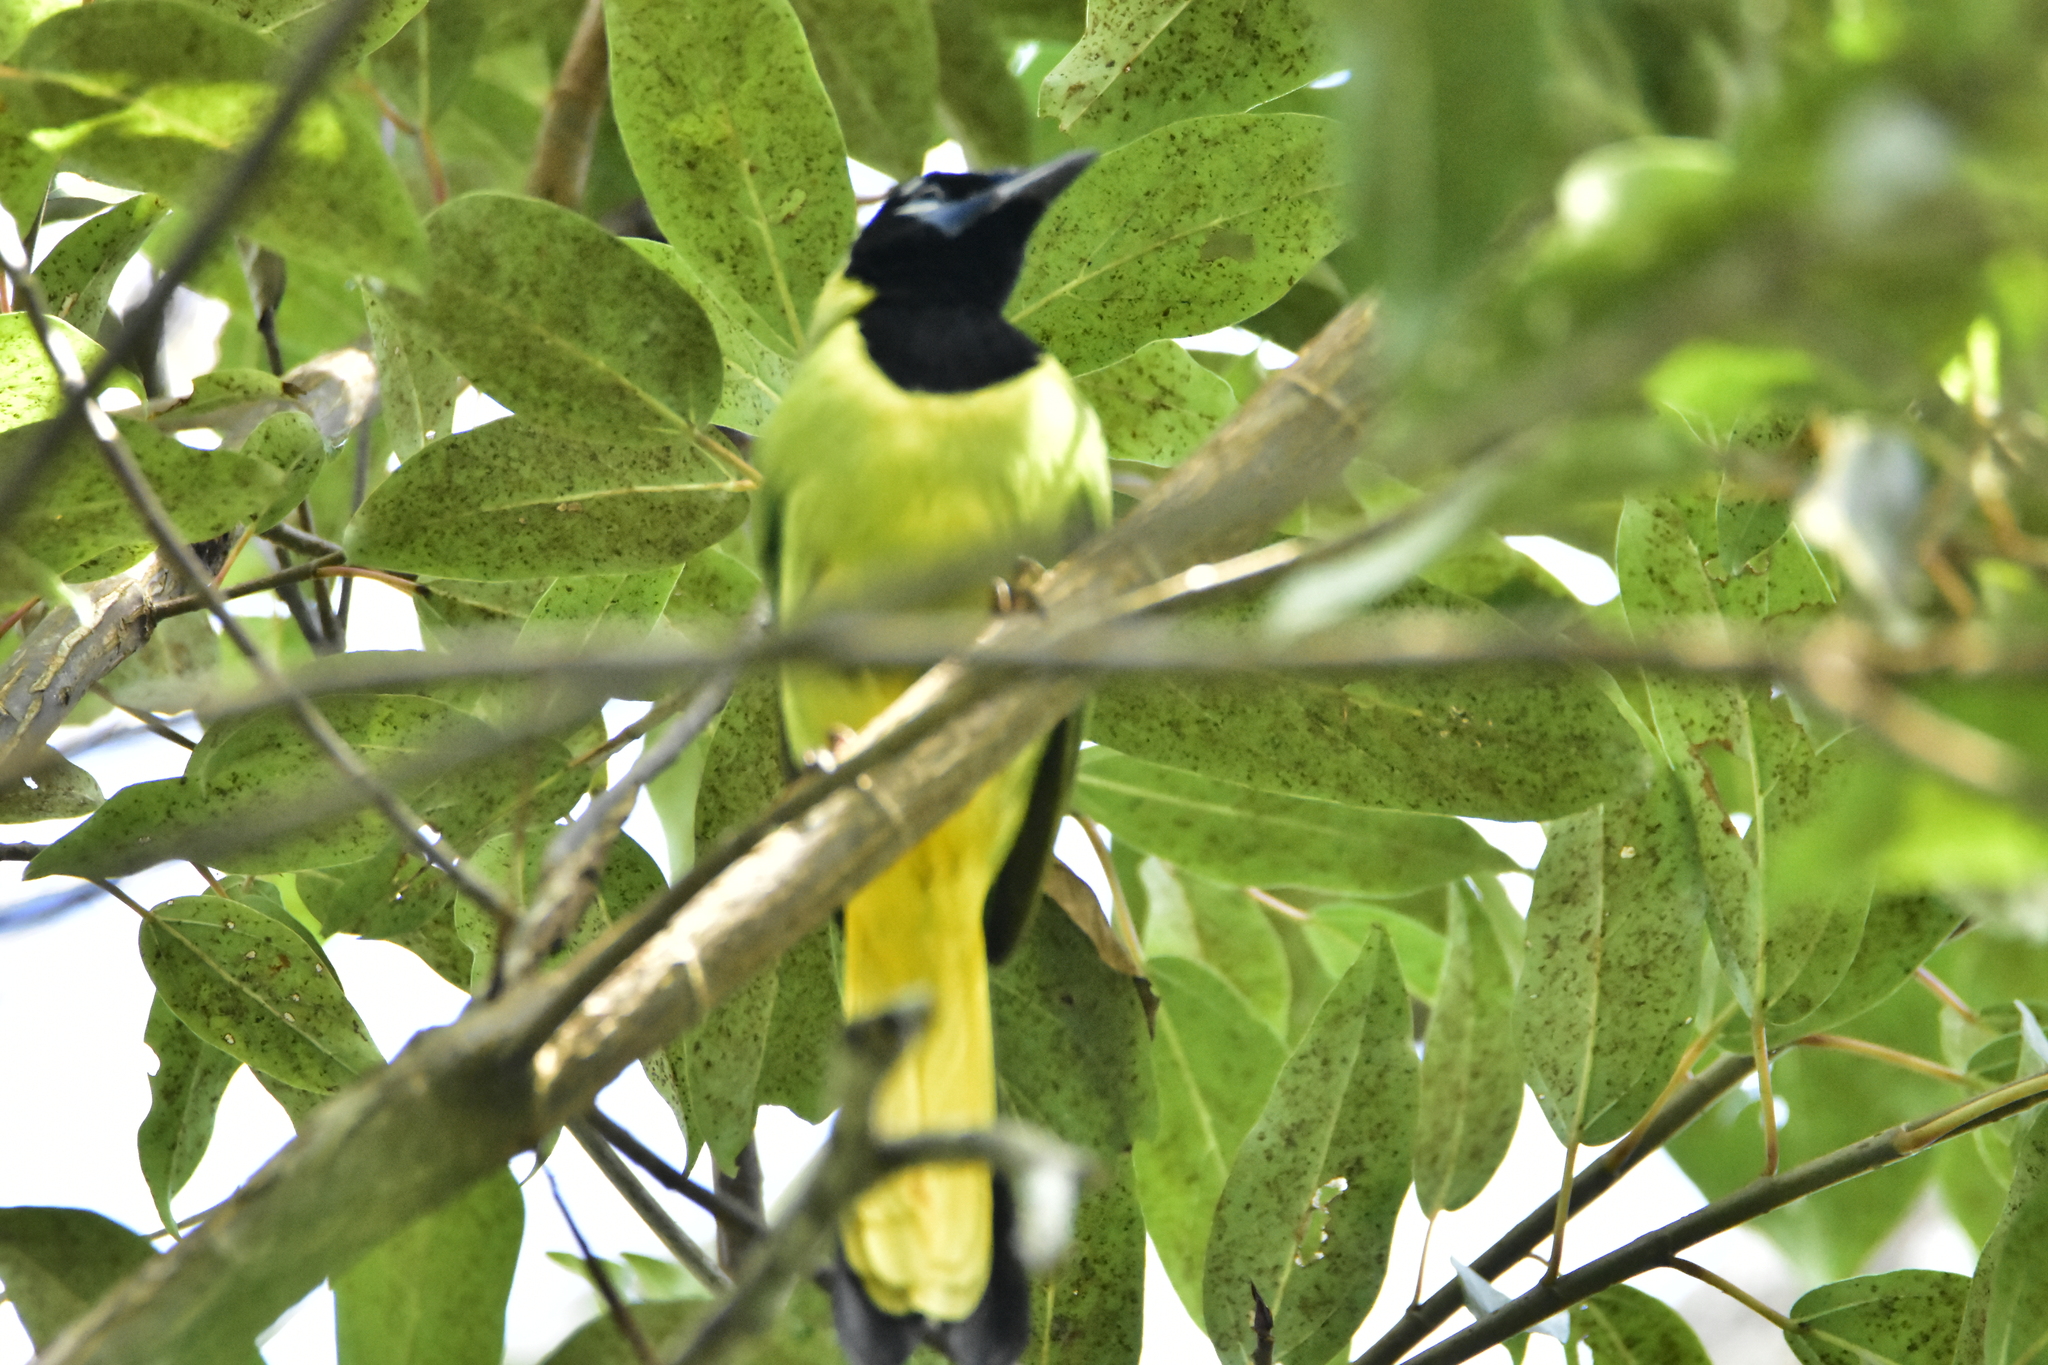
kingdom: Animalia
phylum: Chordata
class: Aves
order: Passeriformes
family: Corvidae
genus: Cyanocorax
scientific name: Cyanocorax yncas
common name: Green jay
